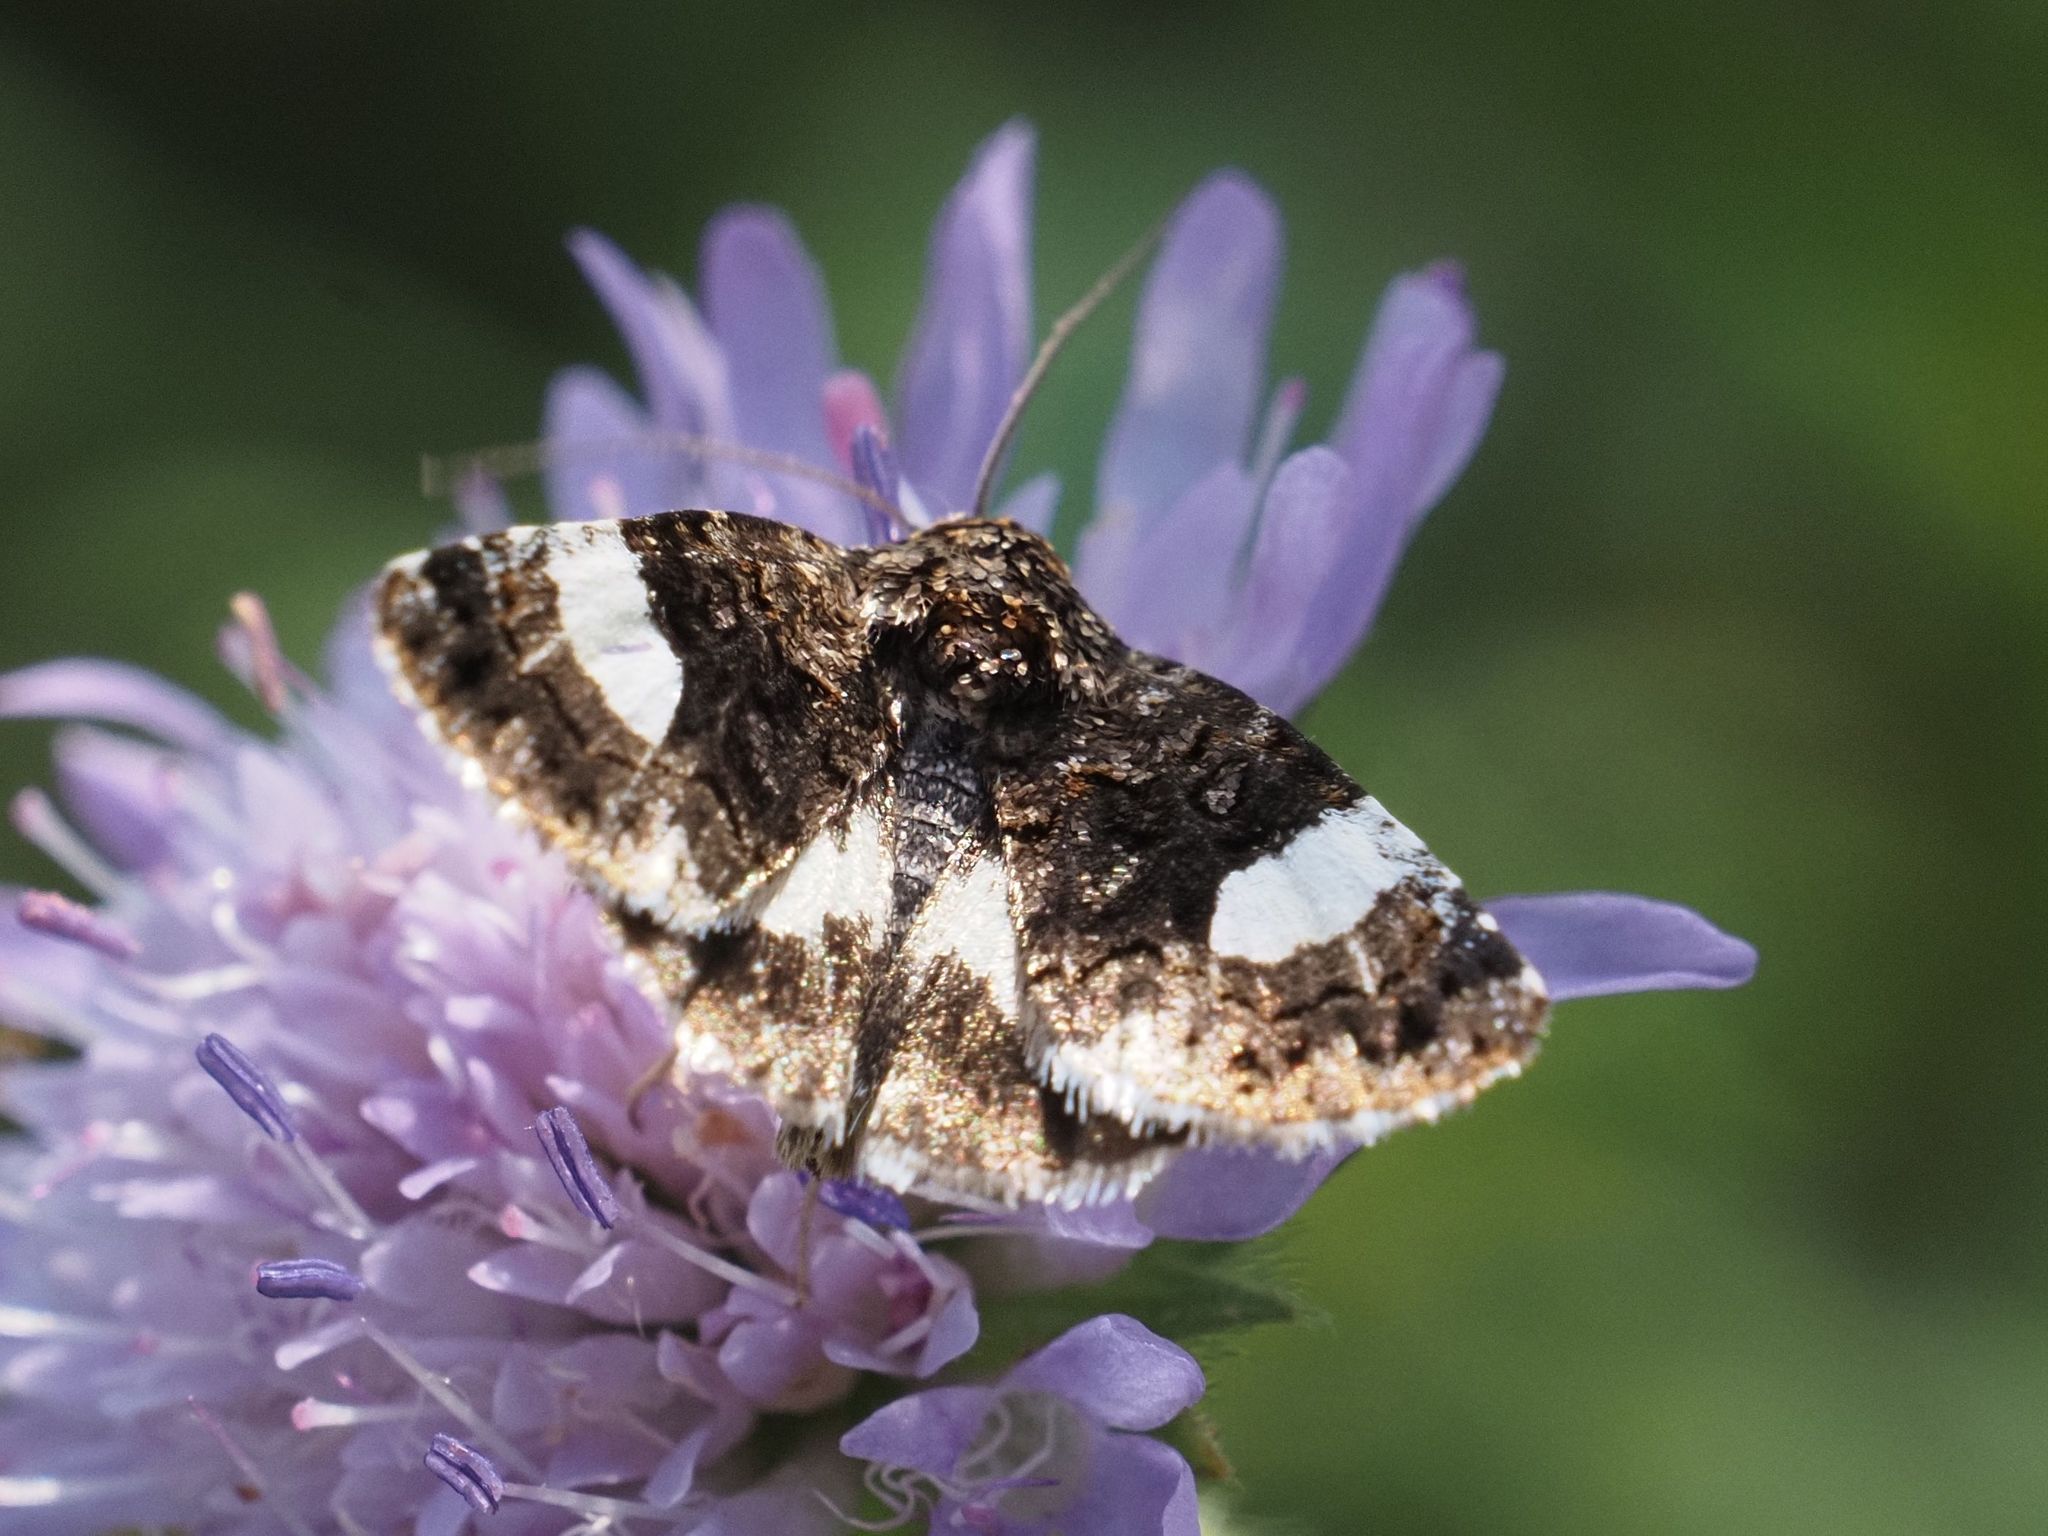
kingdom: Animalia
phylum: Arthropoda
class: Insecta
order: Lepidoptera
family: Erebidae
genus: Tyta
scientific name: Tyta luctuosa
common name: Four-spotted
